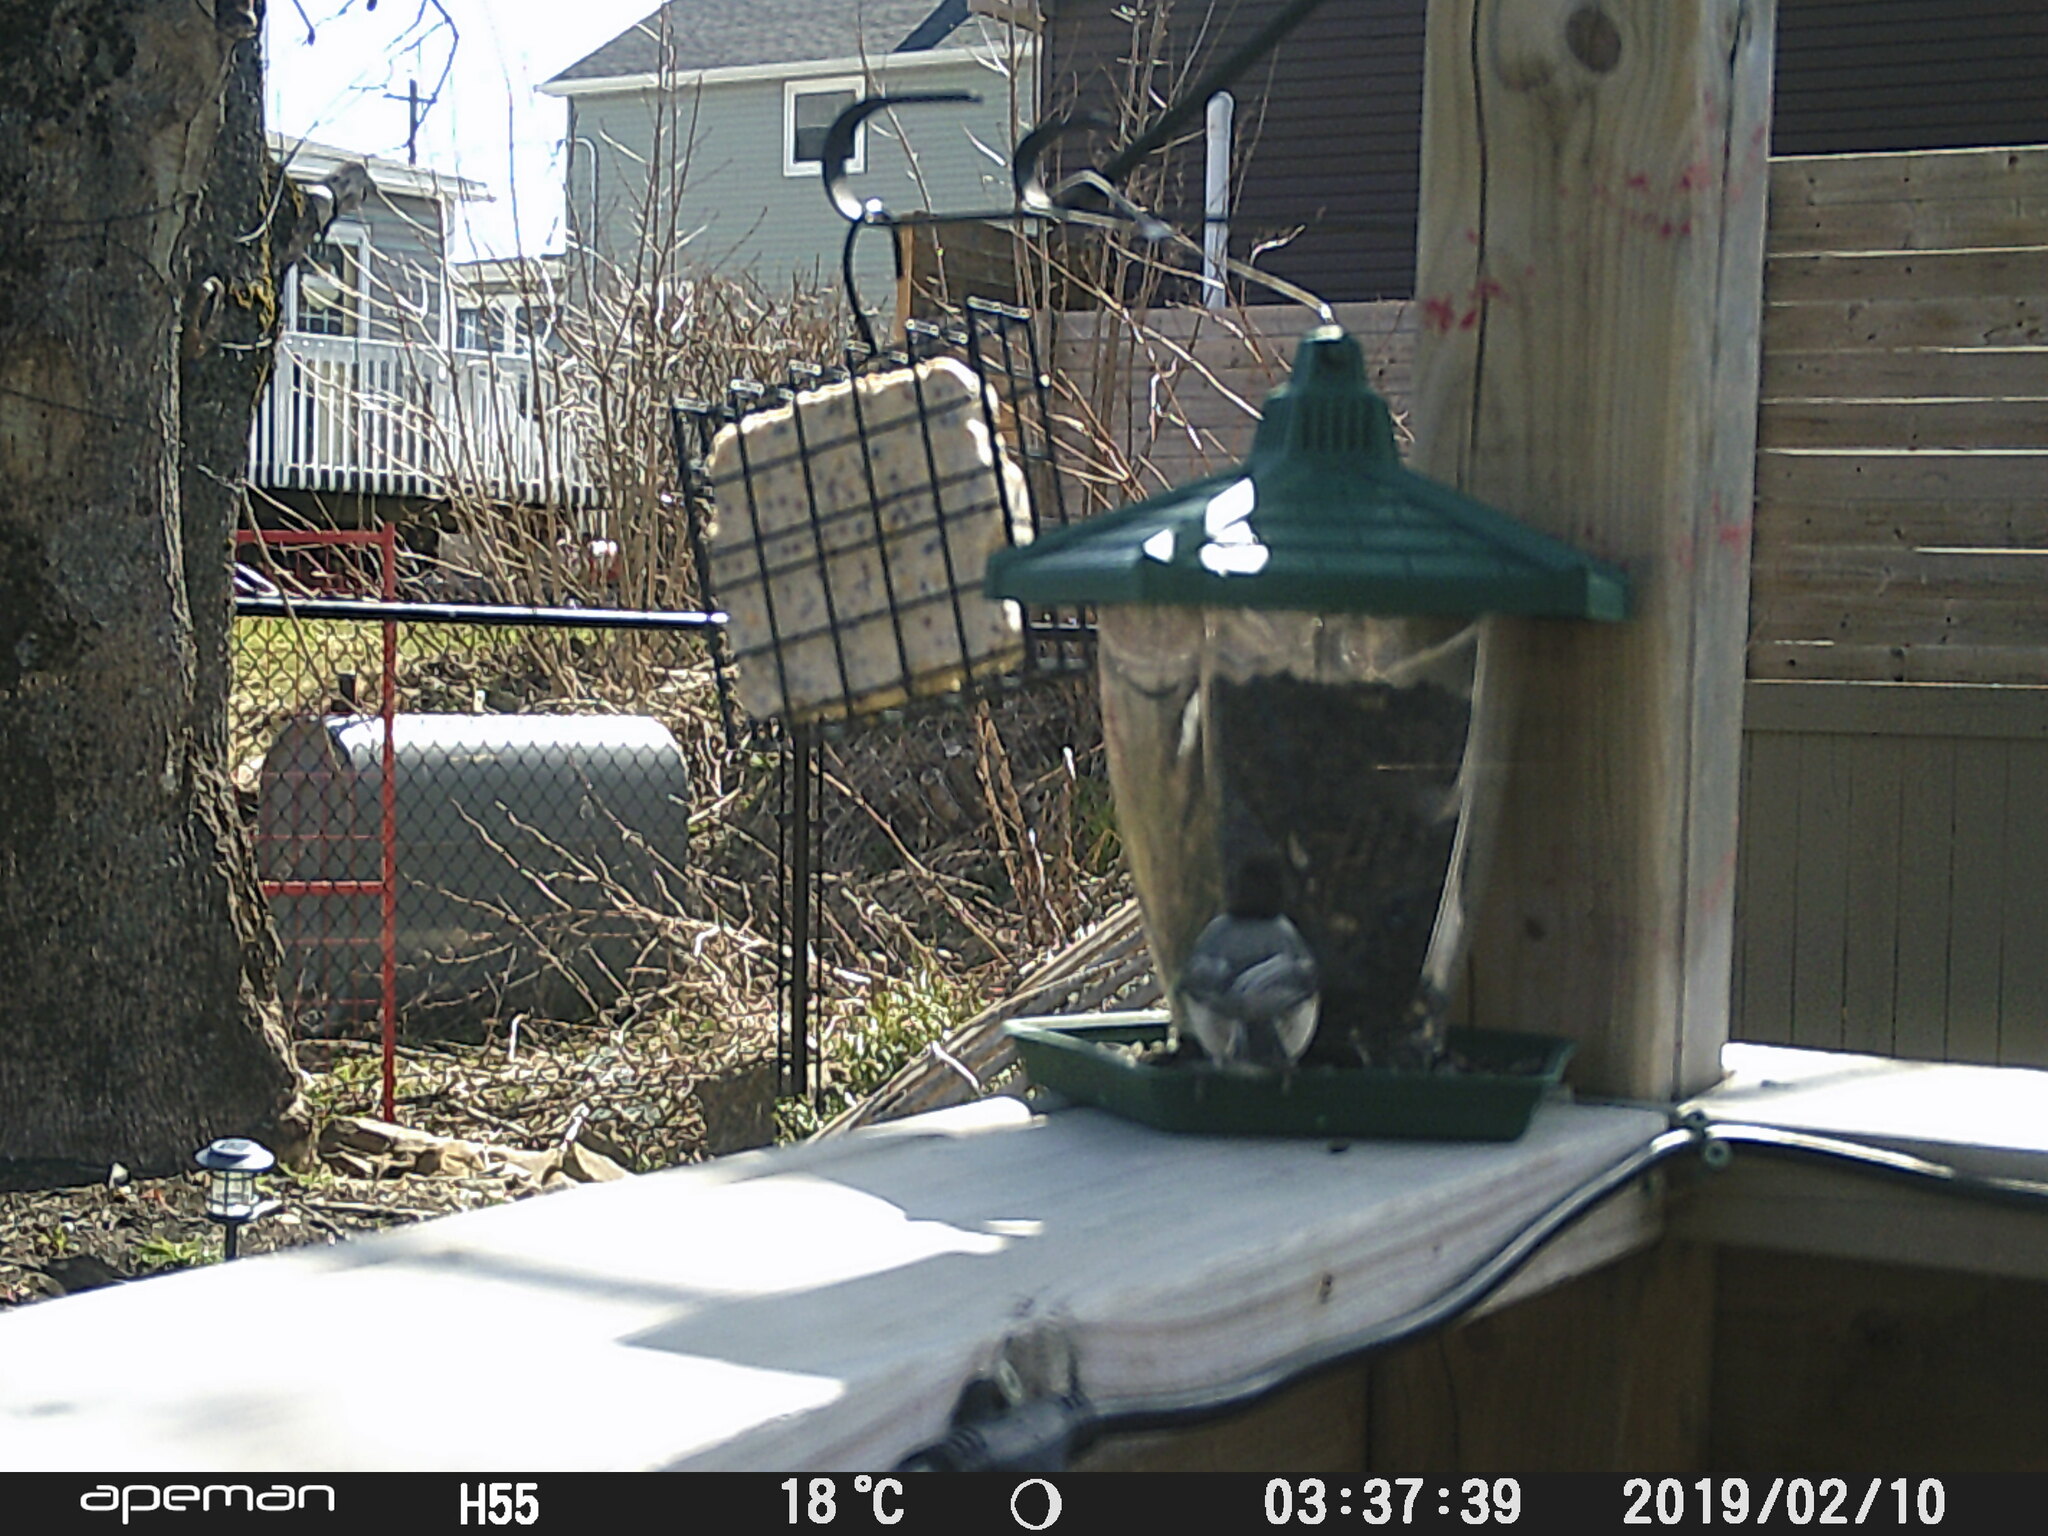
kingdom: Animalia
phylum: Chordata
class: Aves
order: Passeriformes
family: Paridae
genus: Poecile
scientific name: Poecile atricapillus
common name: Black-capped chickadee
